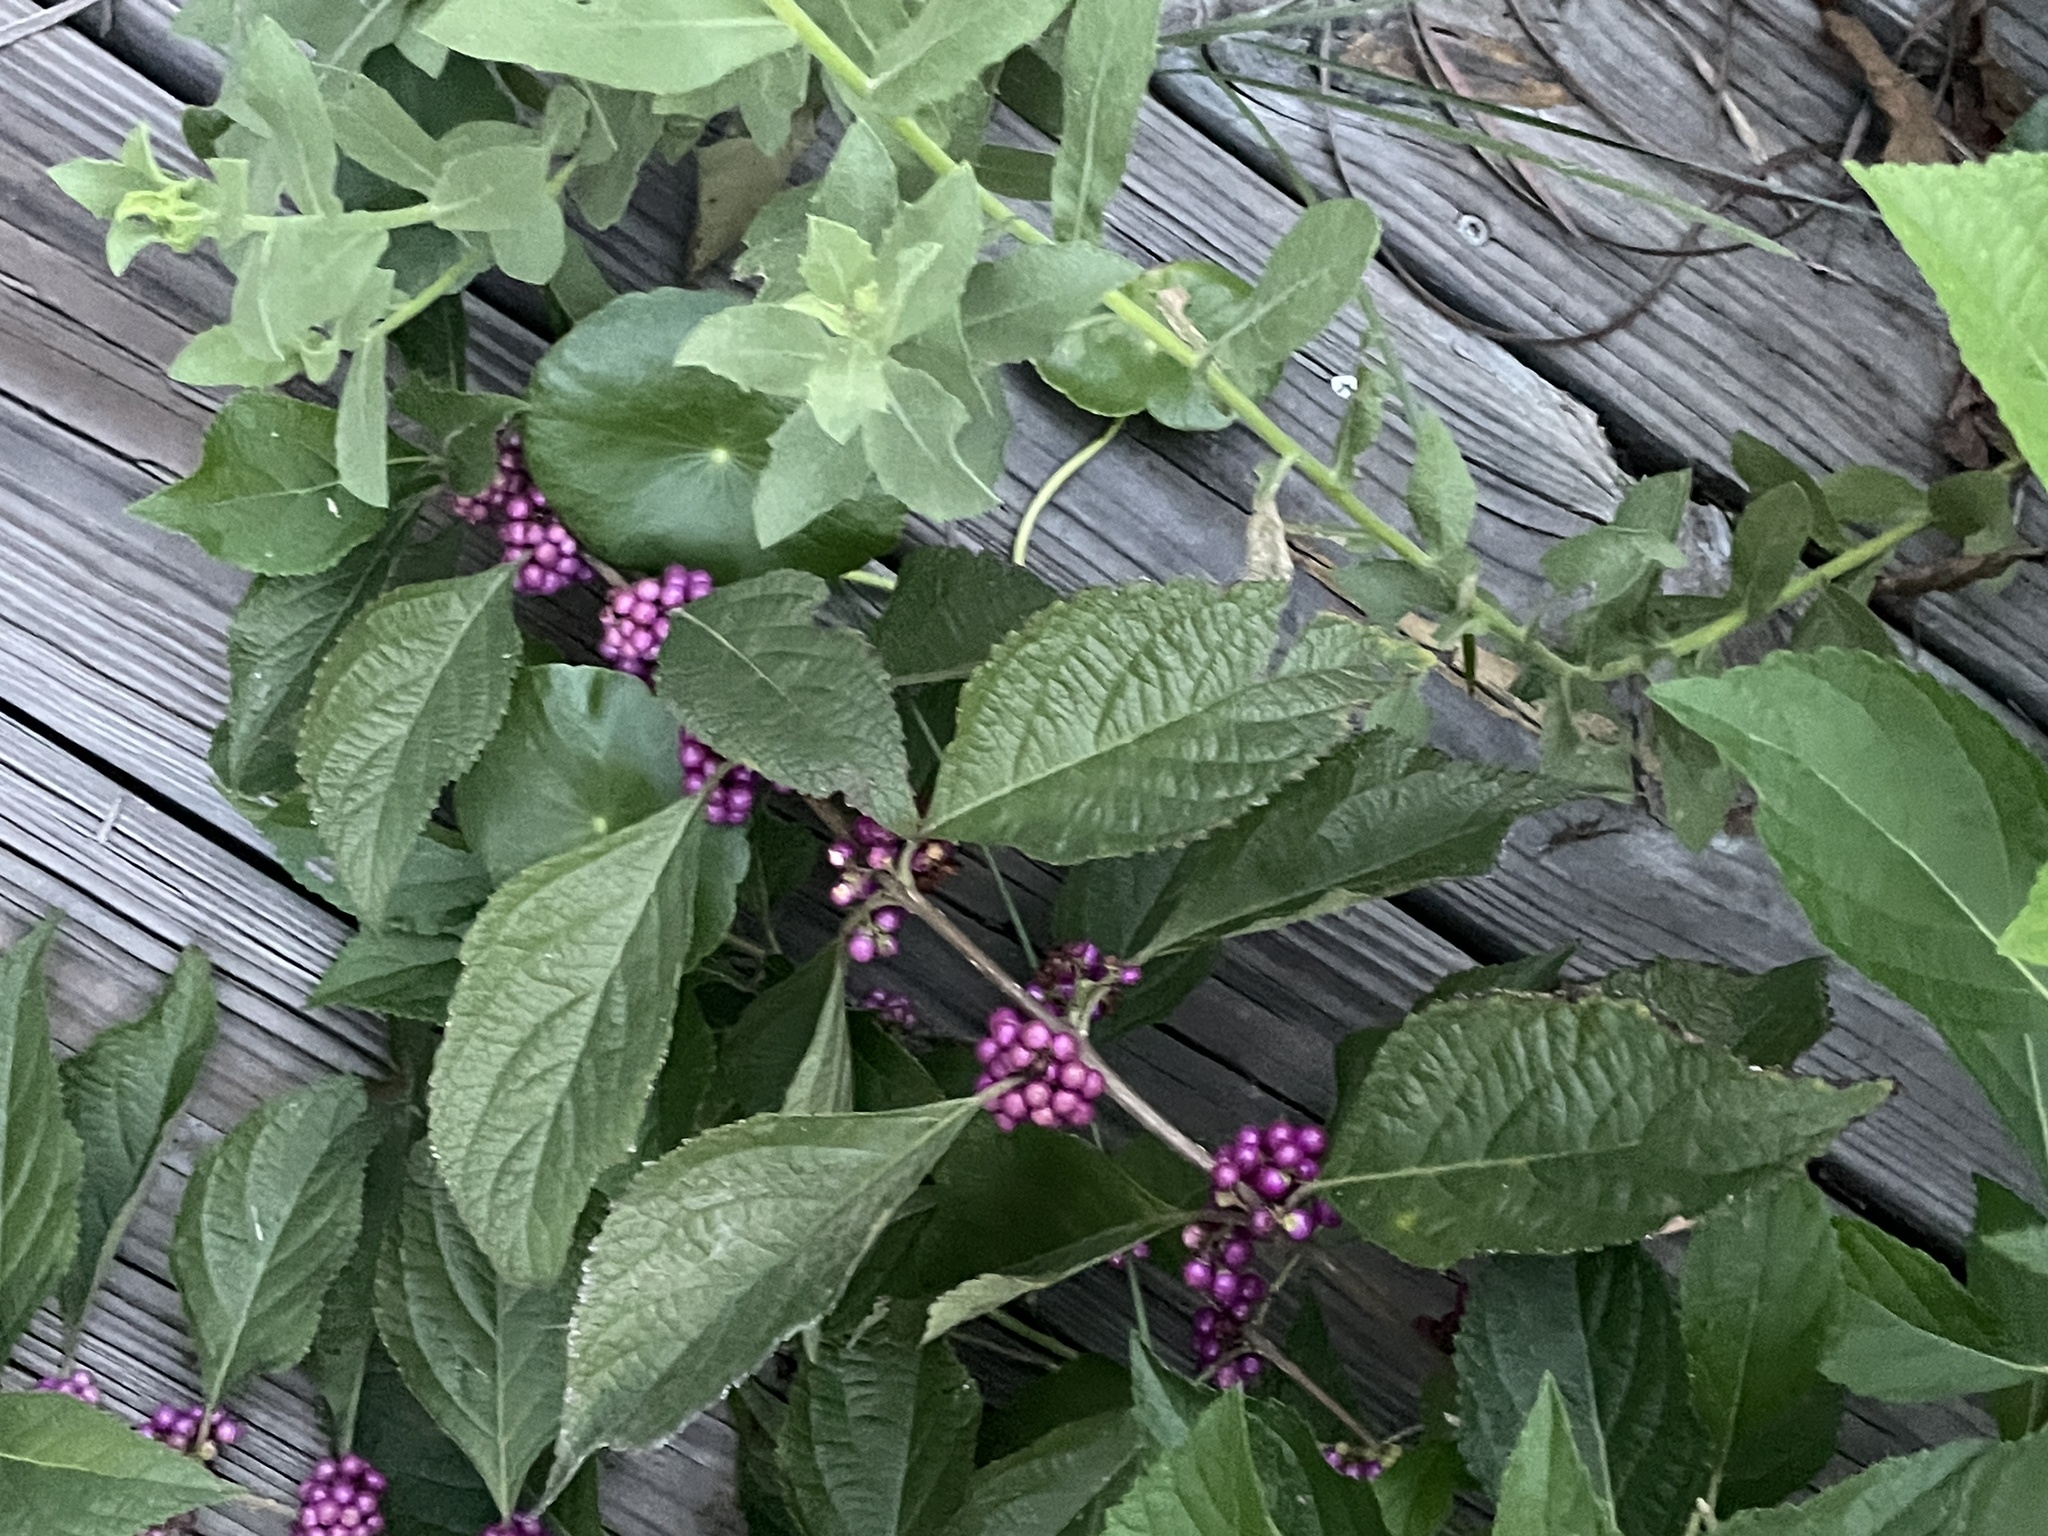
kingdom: Plantae
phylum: Tracheophyta
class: Magnoliopsida
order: Lamiales
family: Lamiaceae
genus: Callicarpa
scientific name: Callicarpa americana
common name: American beautyberry
